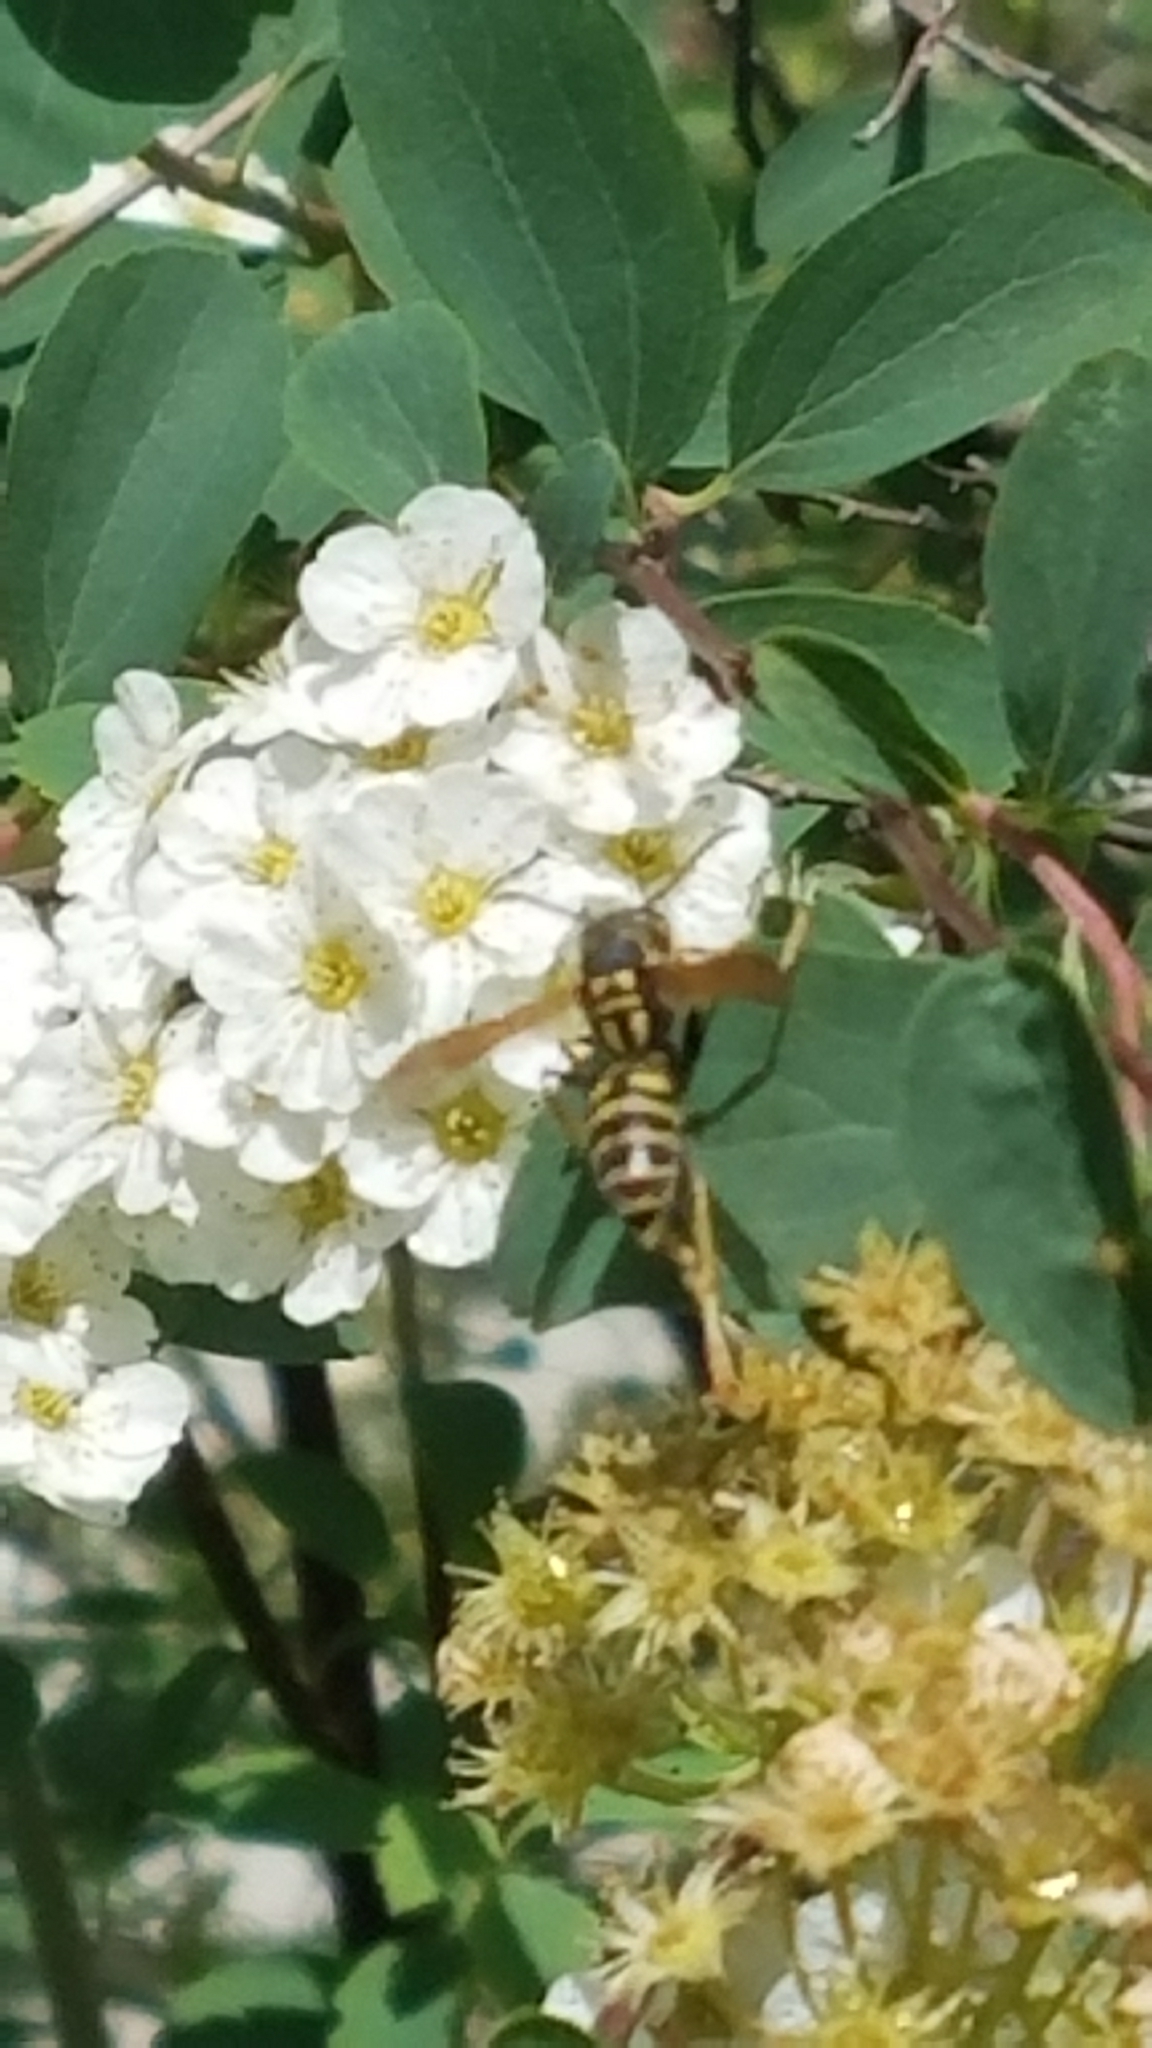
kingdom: Animalia
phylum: Arthropoda
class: Insecta
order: Hymenoptera
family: Eumenidae
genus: Polistes
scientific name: Polistes dominula
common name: Paper wasp
